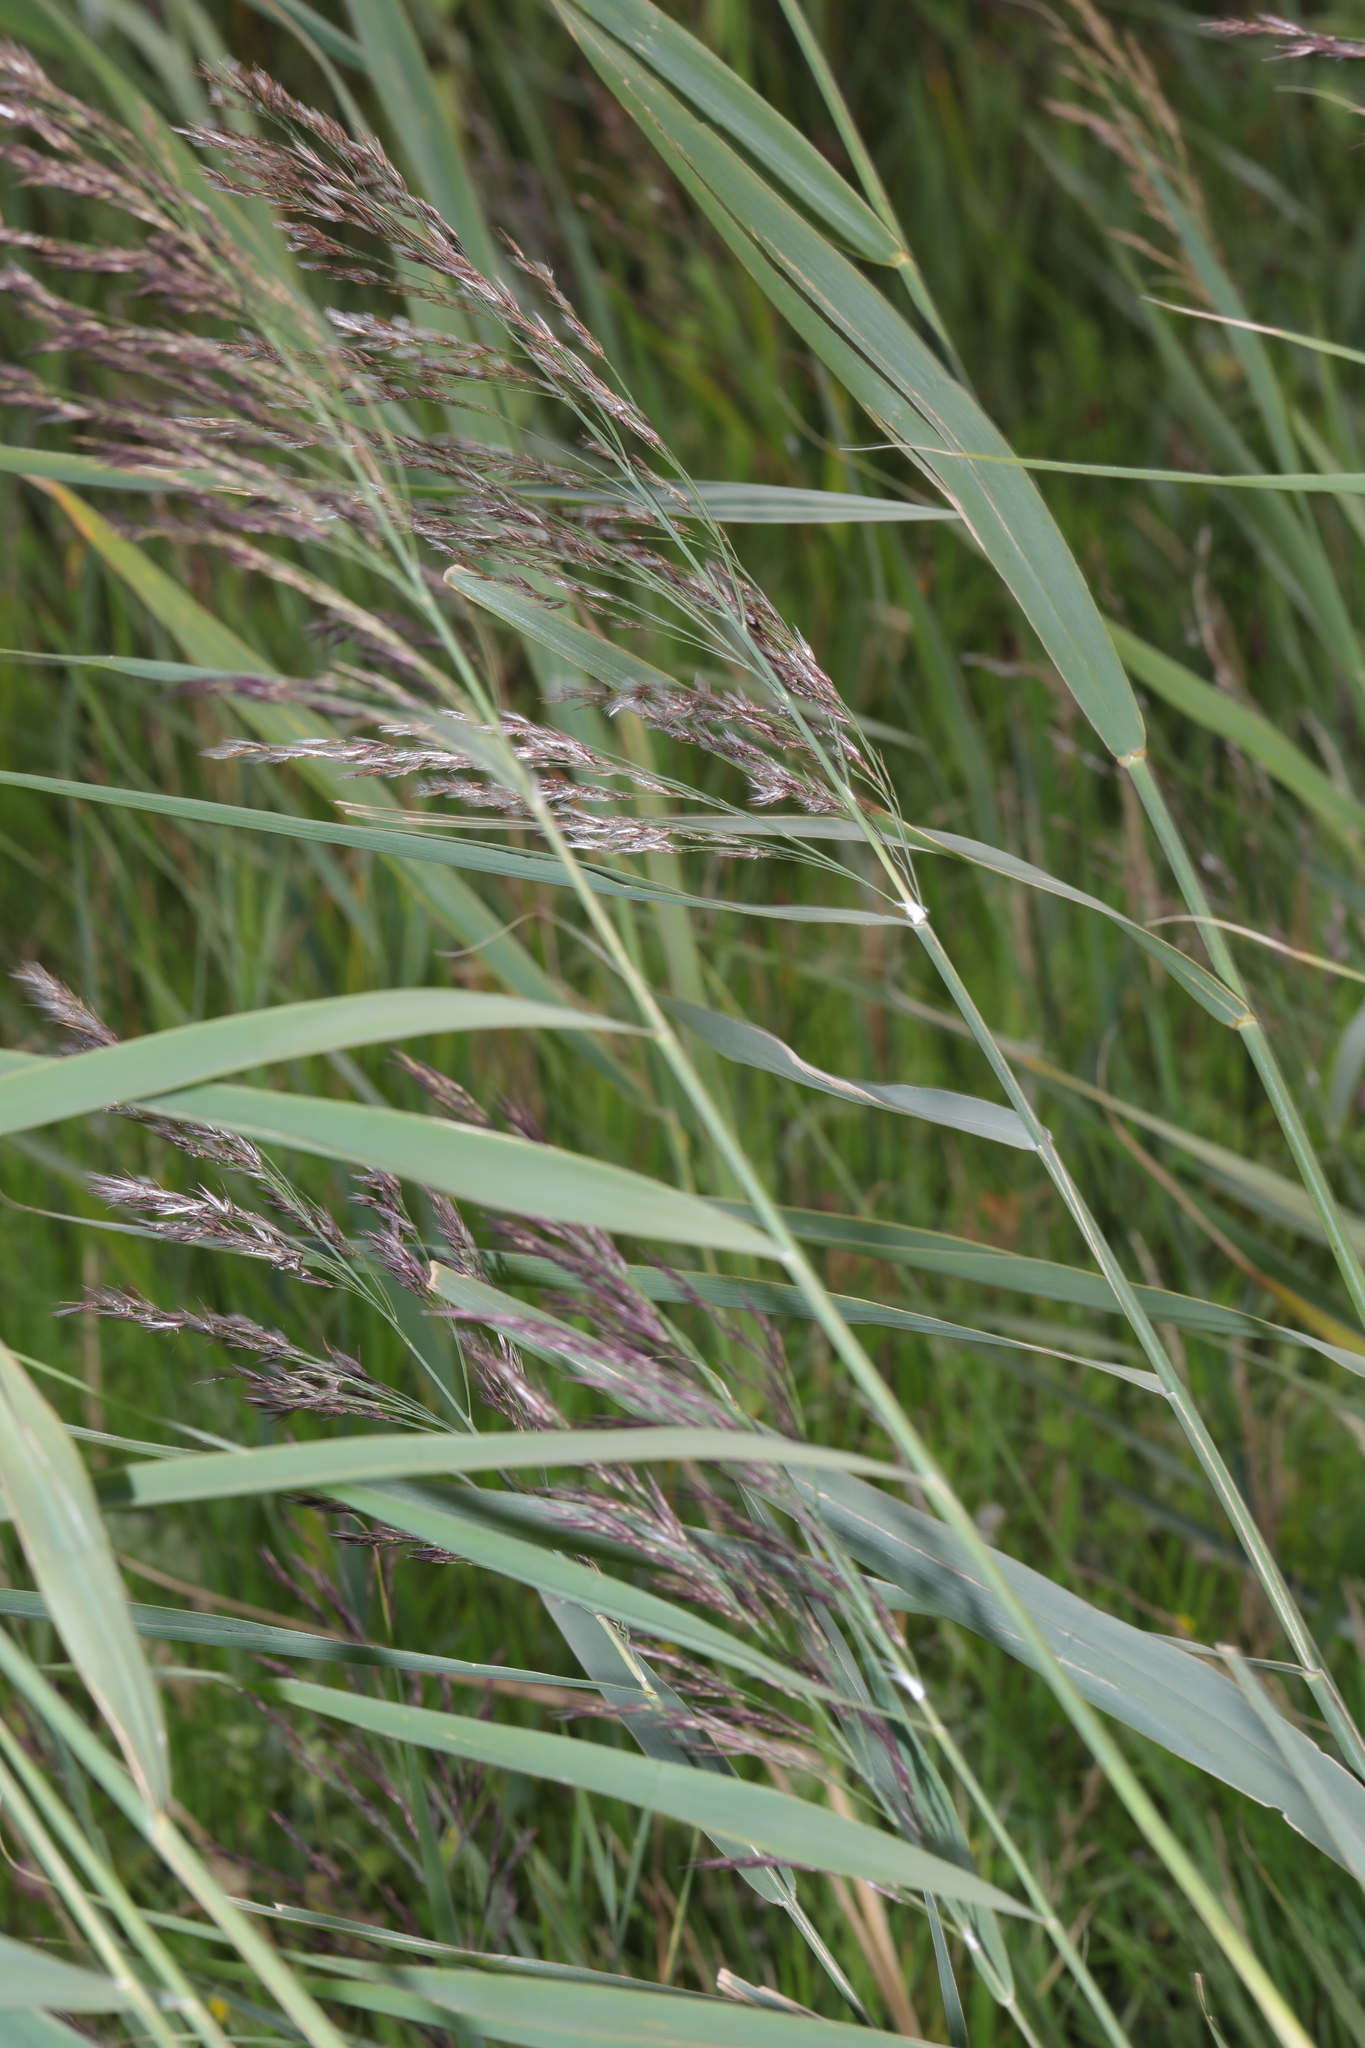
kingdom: Plantae
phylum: Tracheophyta
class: Liliopsida
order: Poales
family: Poaceae
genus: Phragmites
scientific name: Phragmites australis
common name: Common reed
